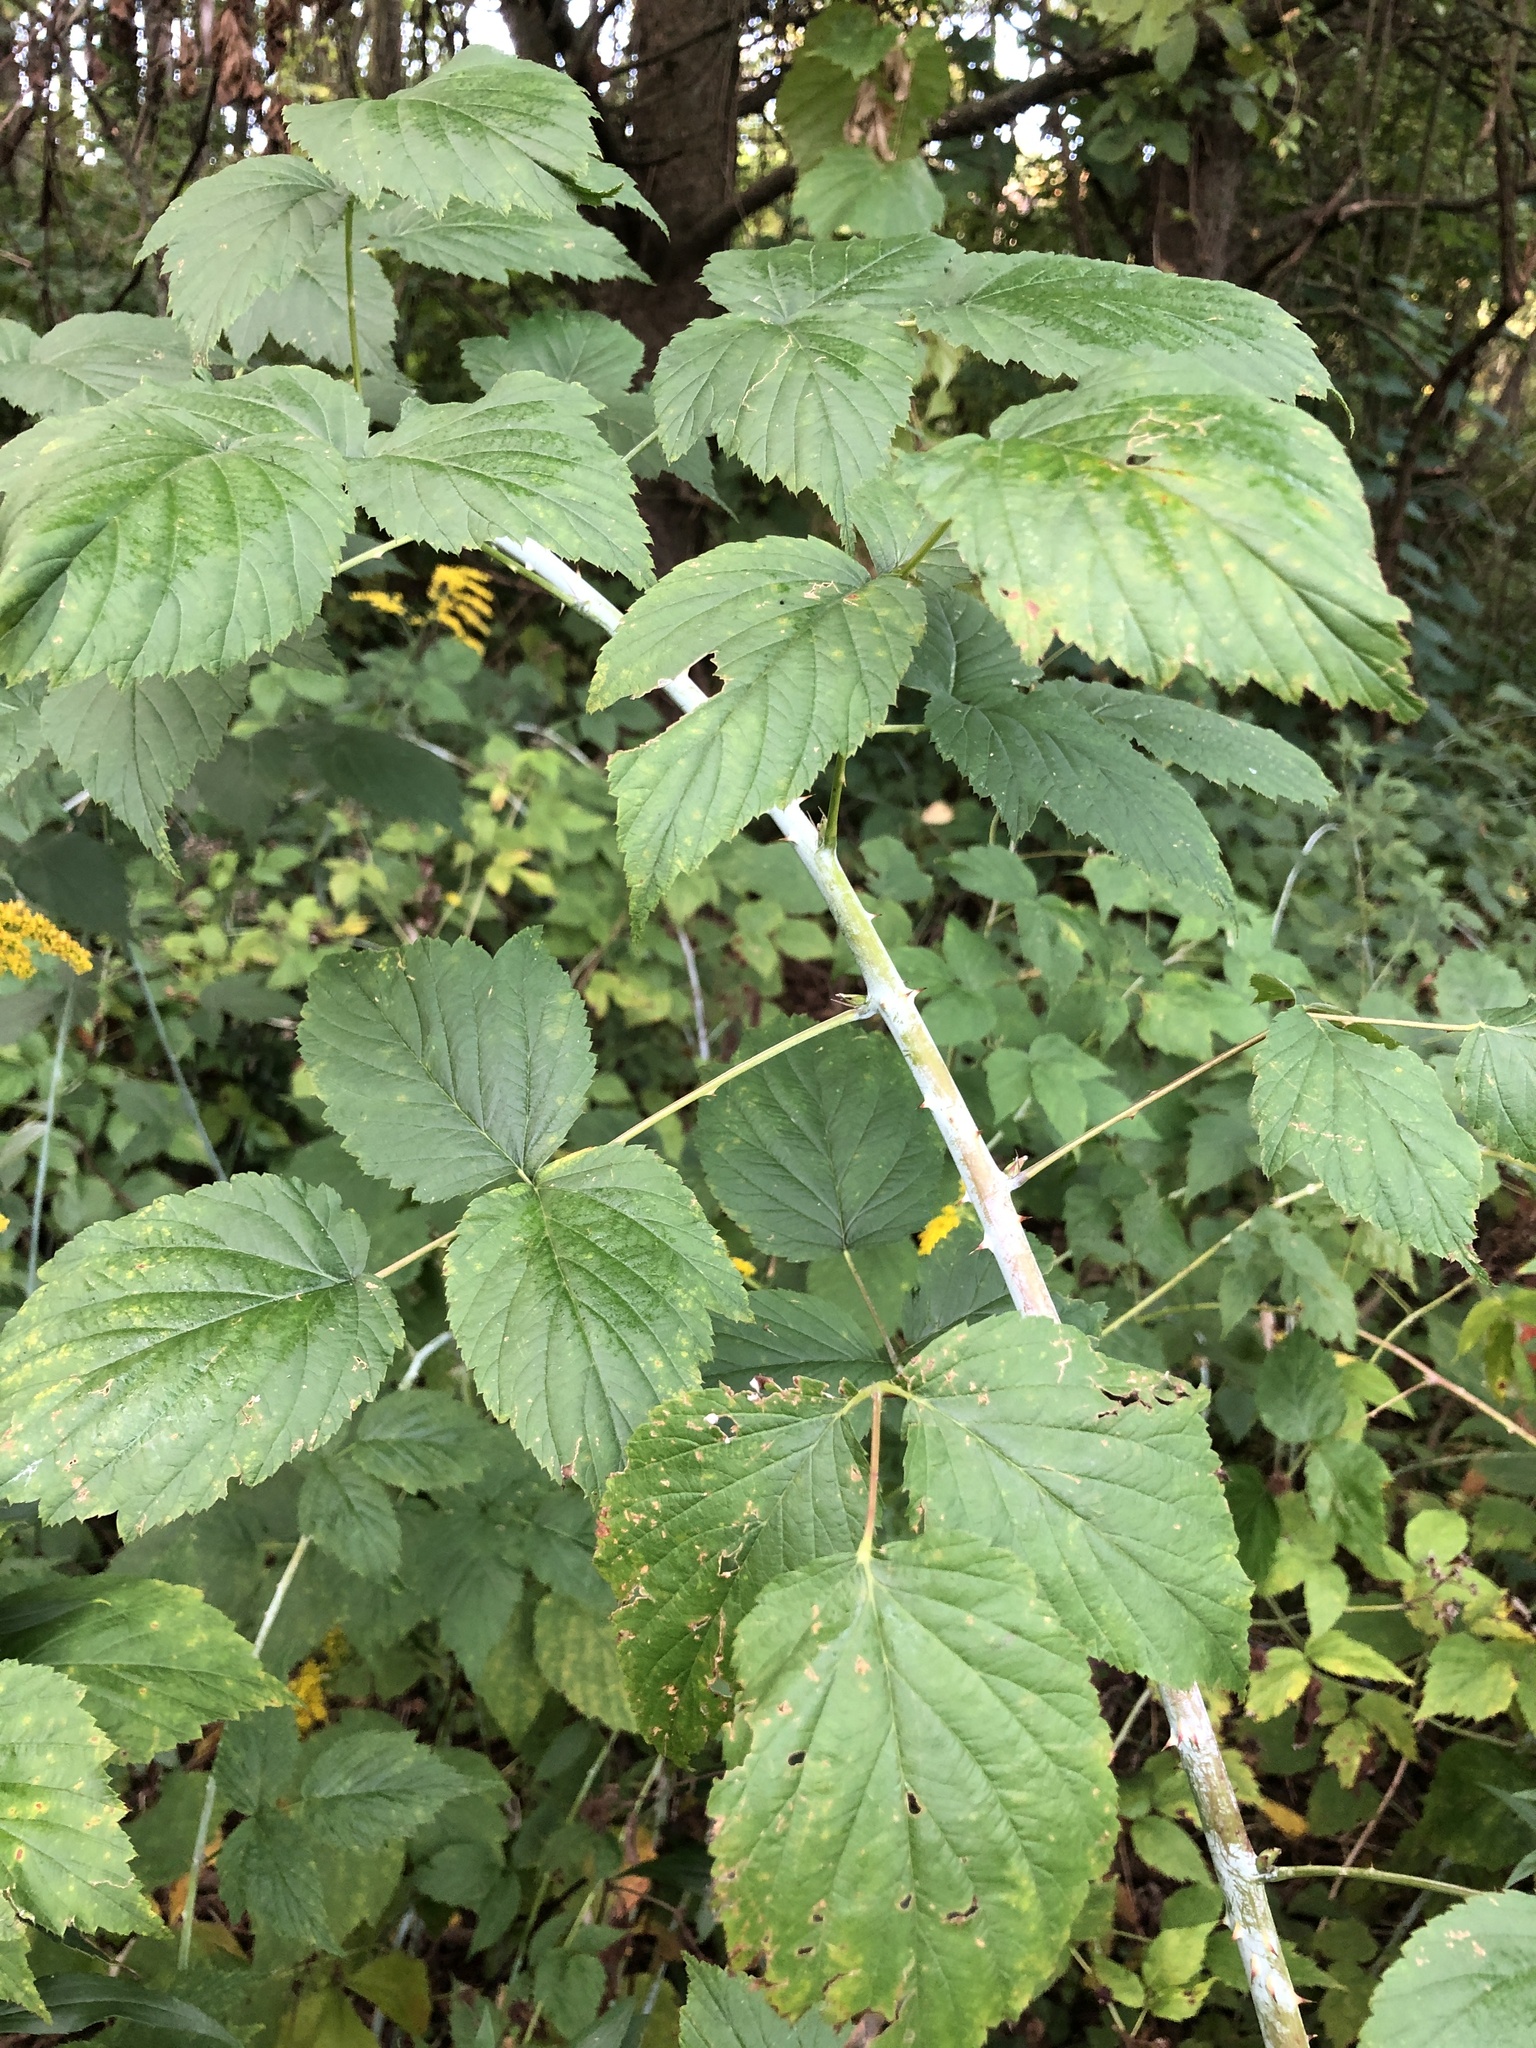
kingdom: Plantae
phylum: Tracheophyta
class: Magnoliopsida
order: Rosales
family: Rosaceae
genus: Rubus
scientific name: Rubus occidentalis
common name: Black raspberry
